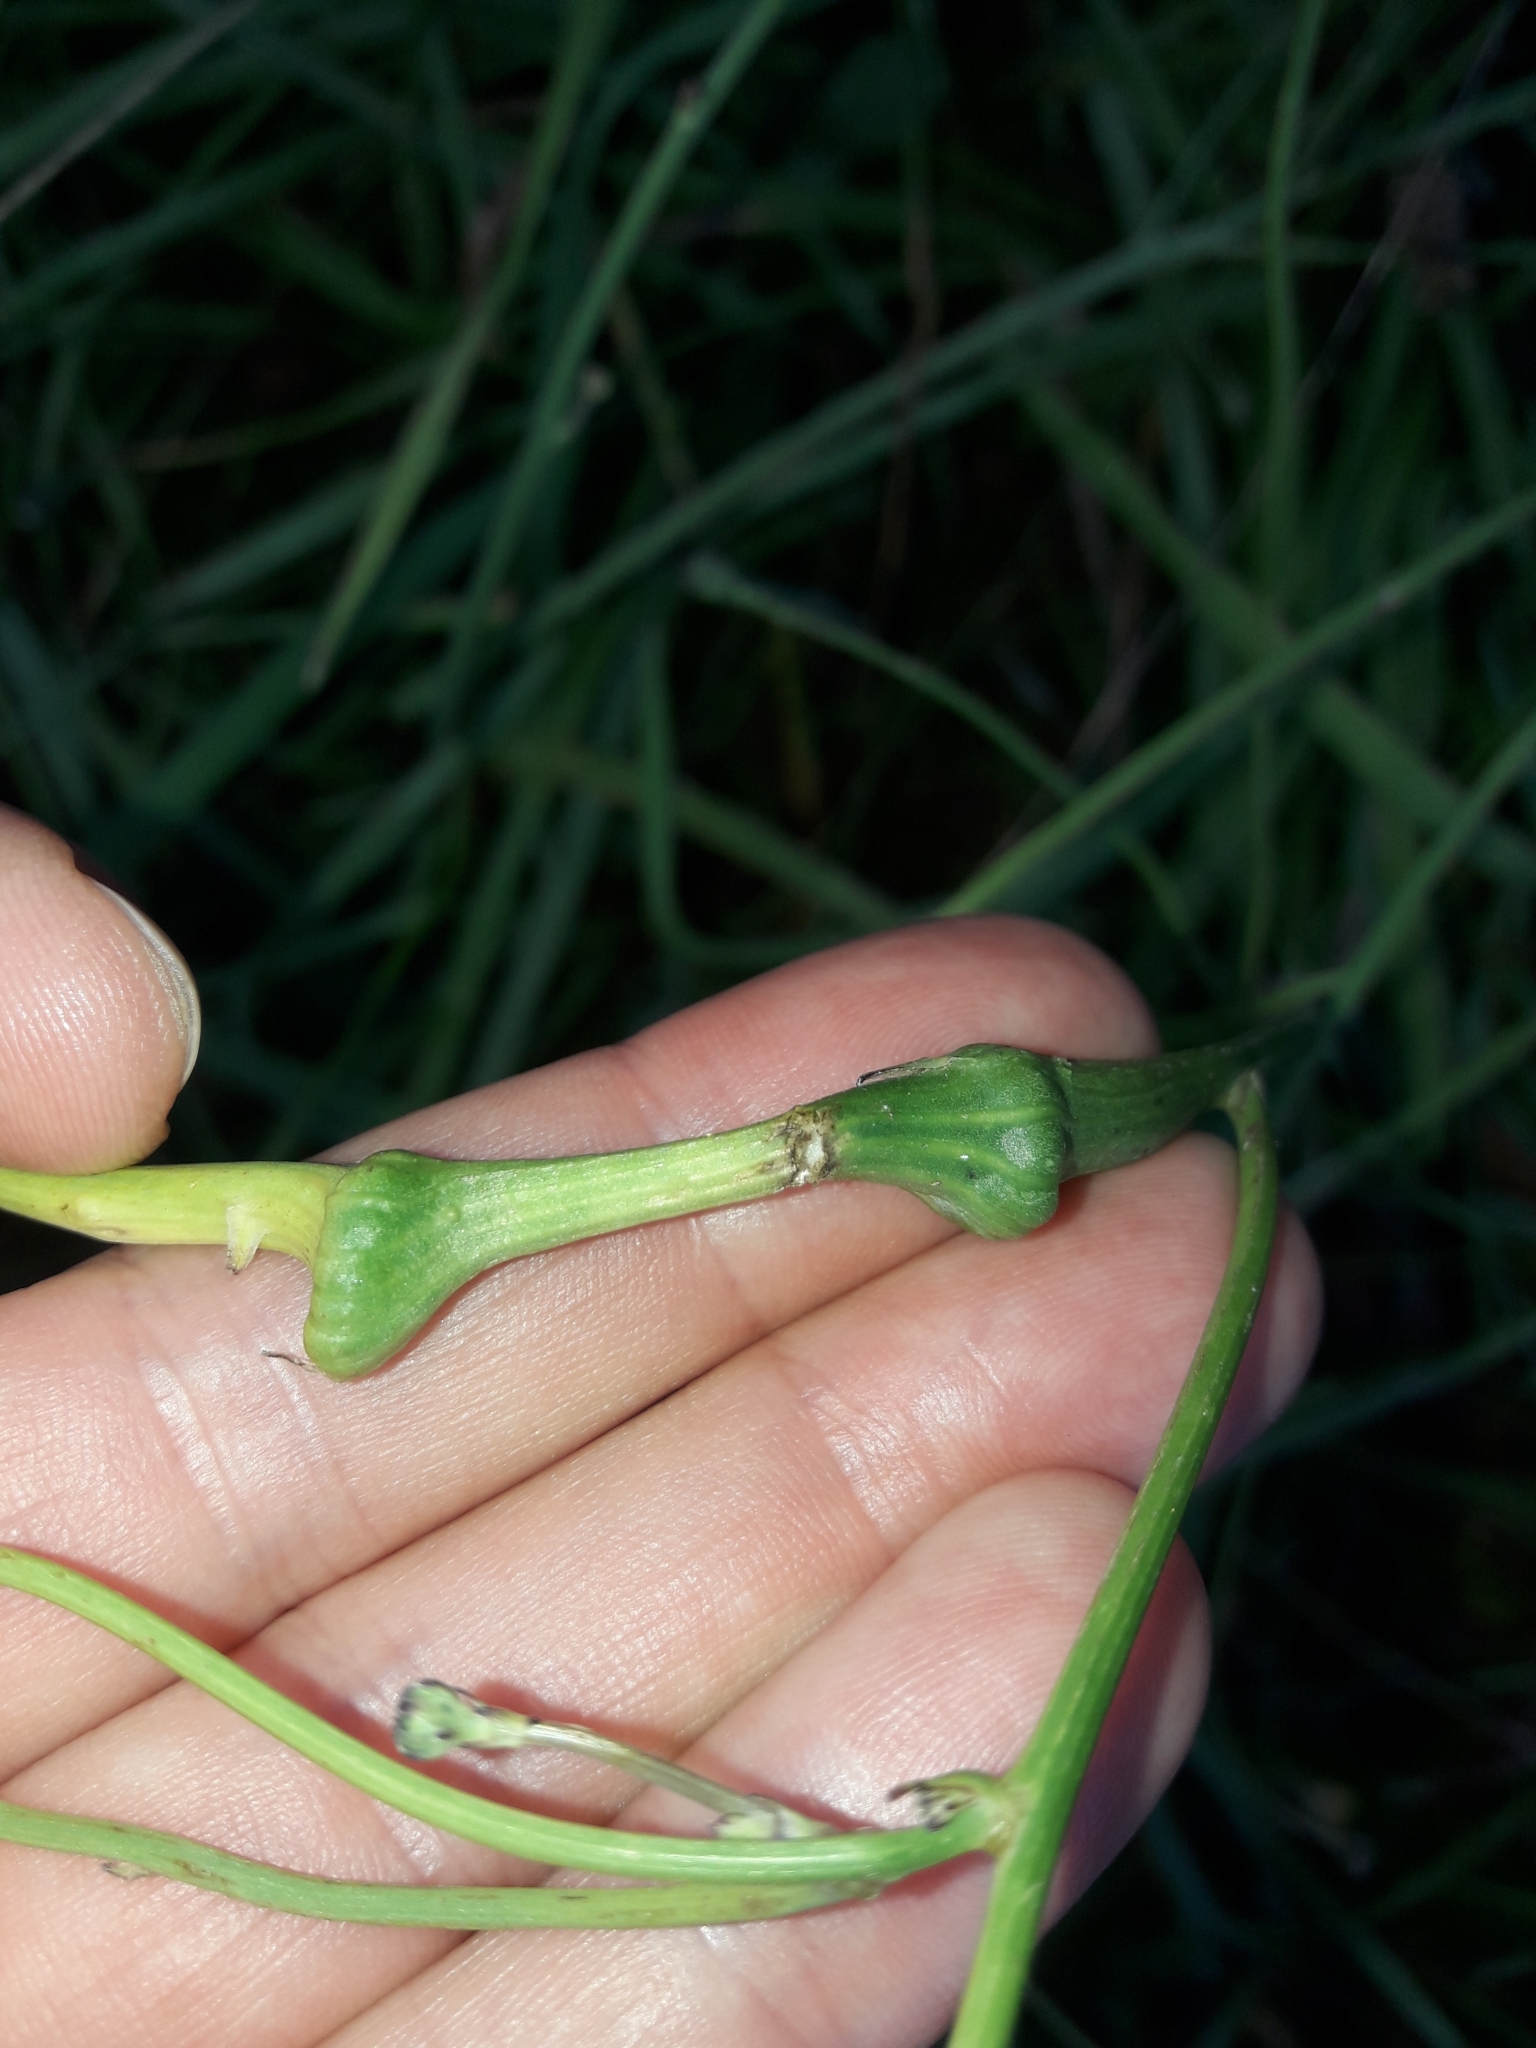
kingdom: Animalia
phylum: Arthropoda
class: Insecta
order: Hymenoptera
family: Cynipidae
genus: Phanacis
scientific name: Phanacis hypochoeridis
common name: Gall wasp
